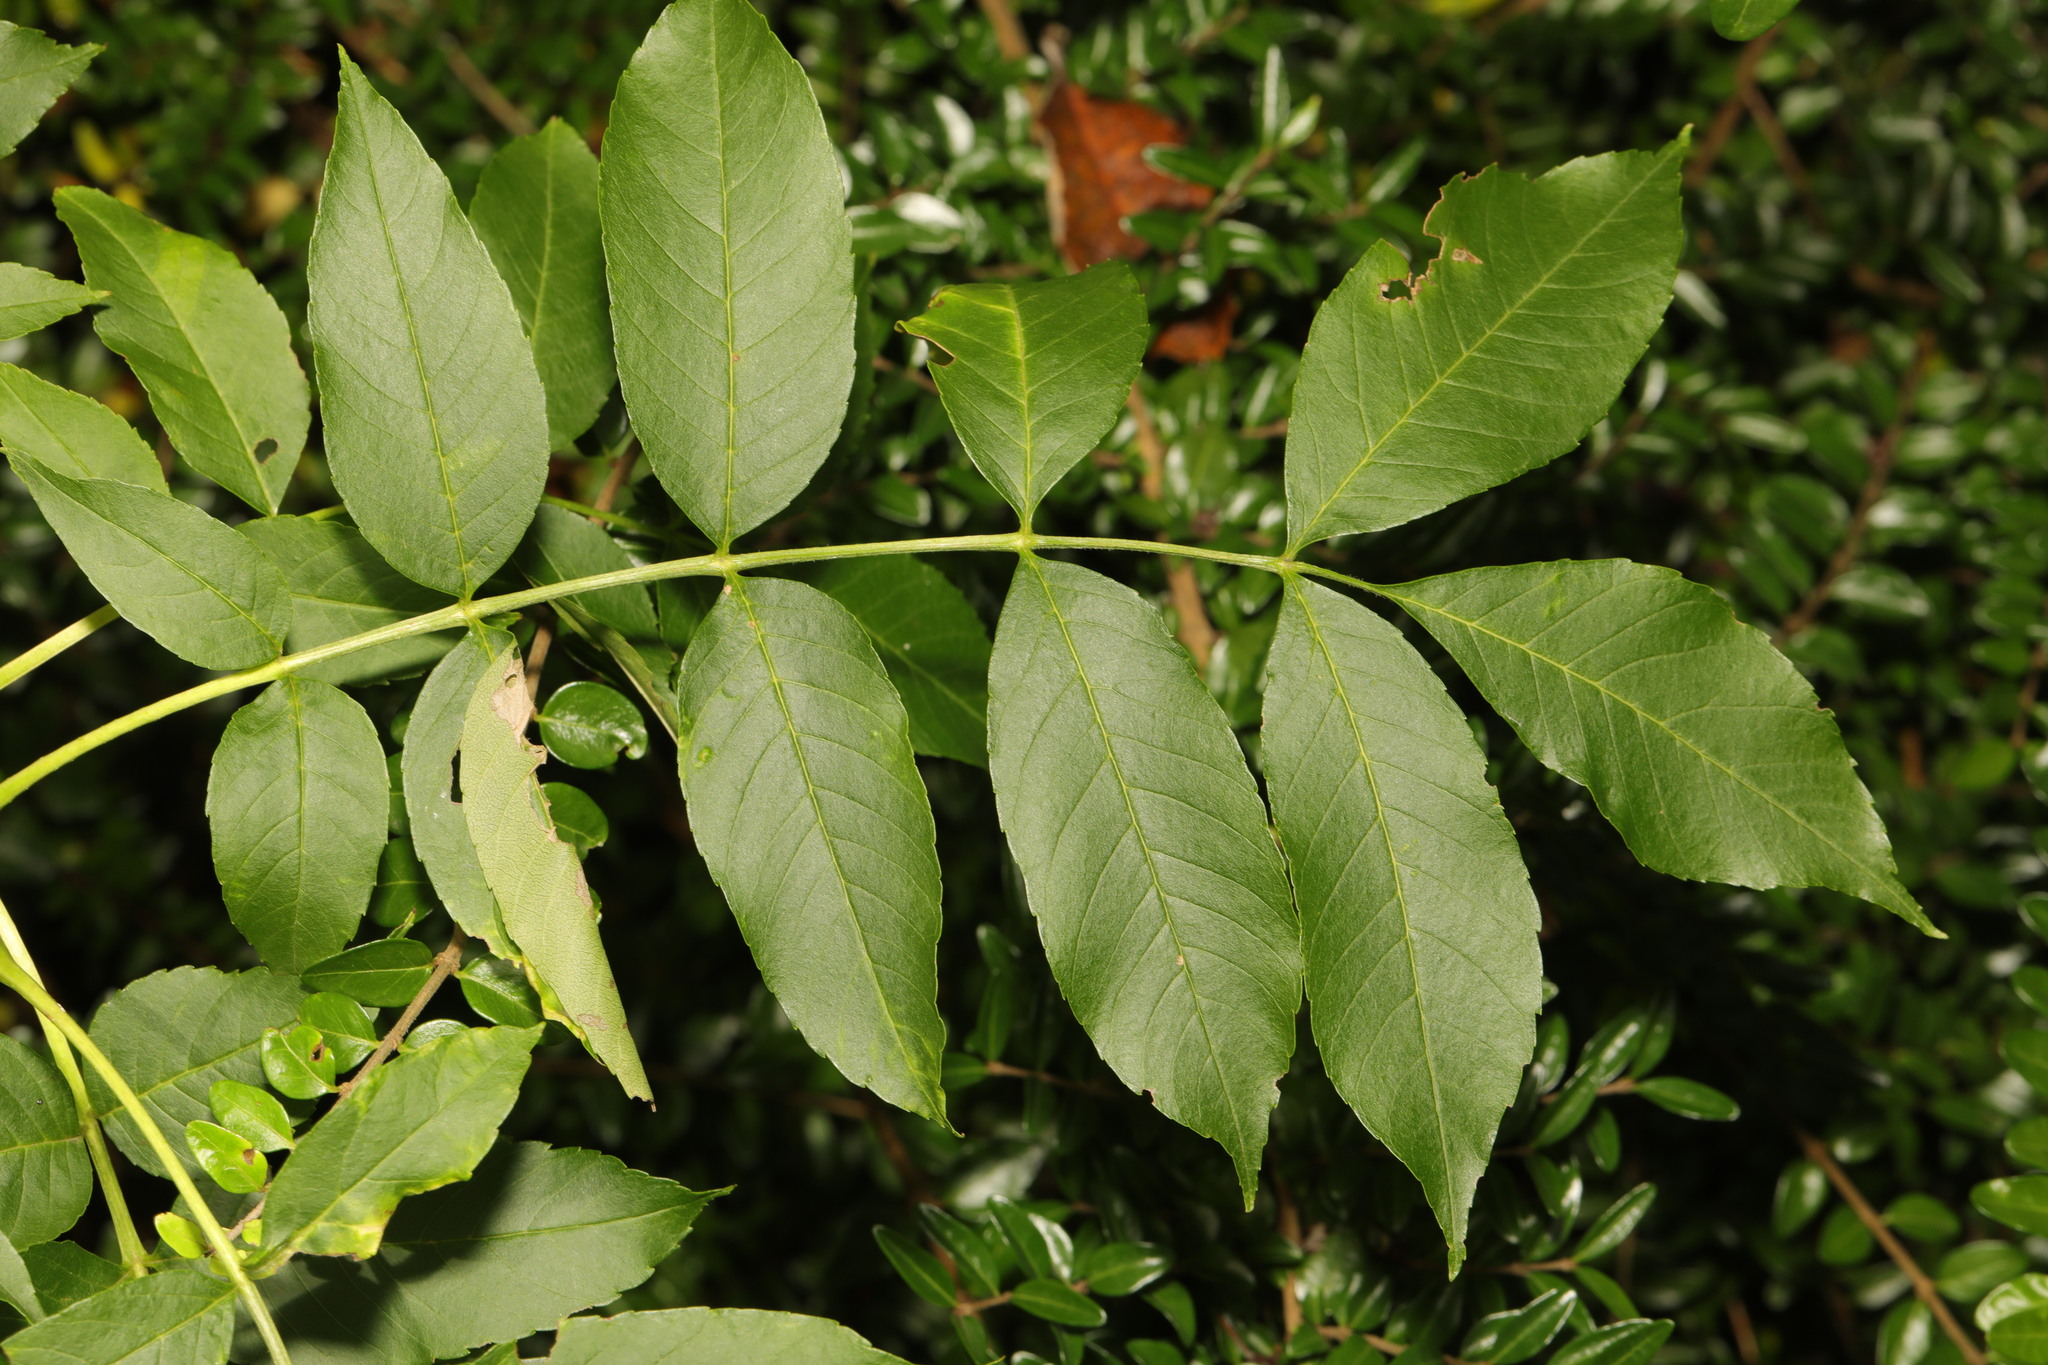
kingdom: Plantae
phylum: Tracheophyta
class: Magnoliopsida
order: Lamiales
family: Oleaceae
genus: Fraxinus
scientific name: Fraxinus excelsior
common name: European ash
